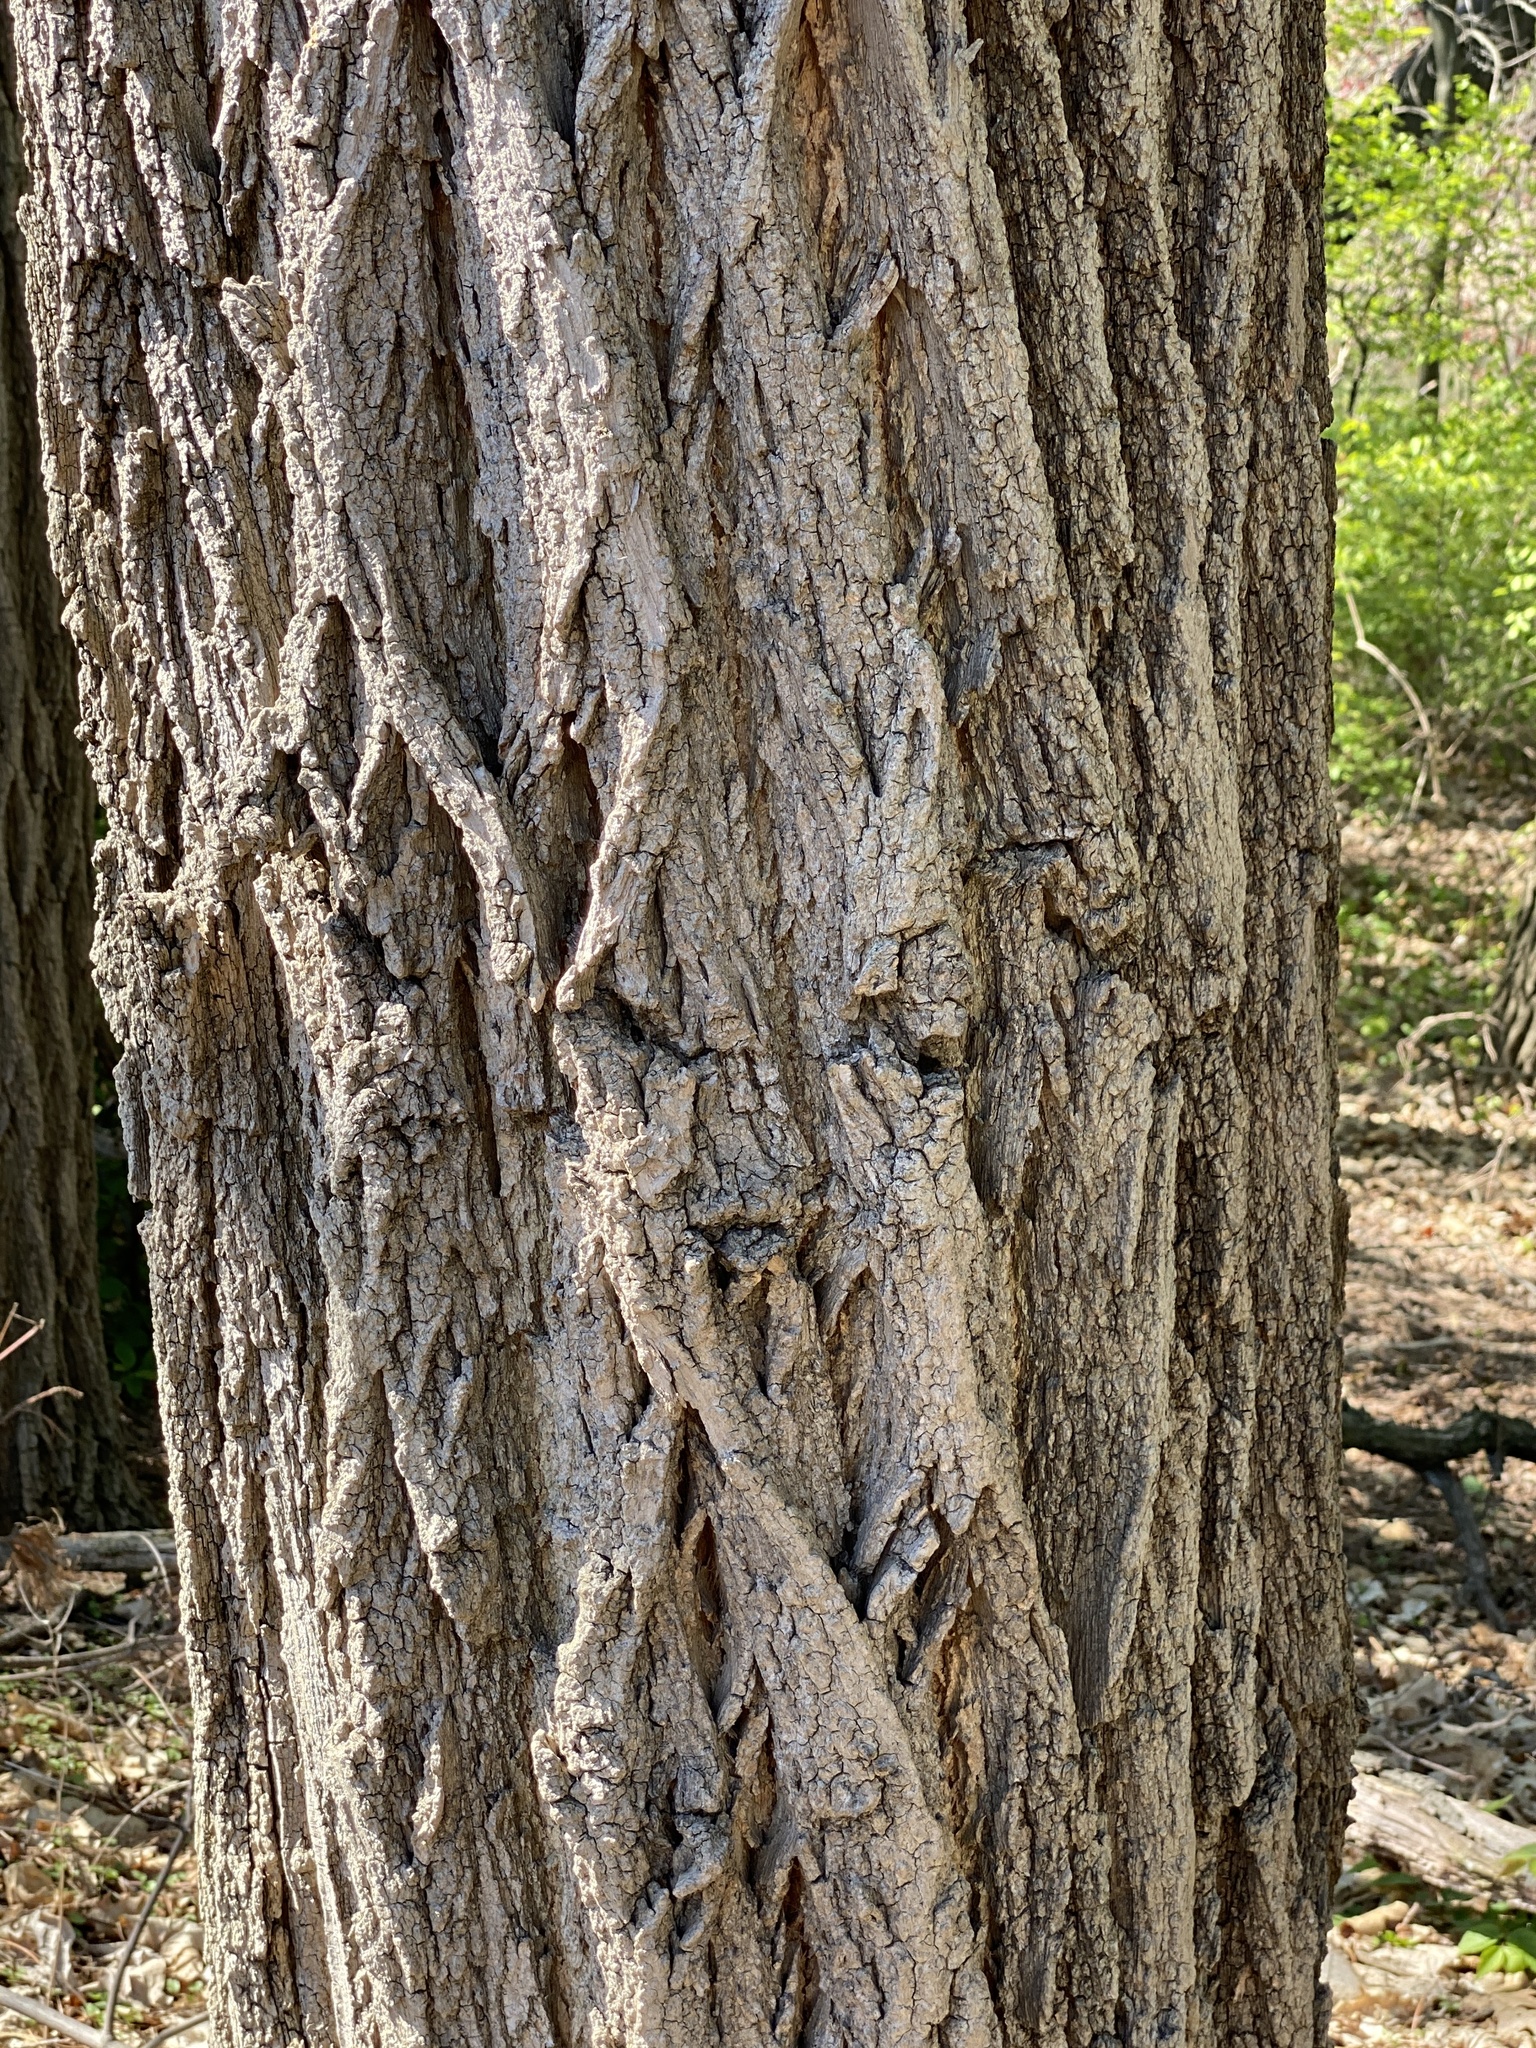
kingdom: Plantae
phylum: Tracheophyta
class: Magnoliopsida
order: Fabales
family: Fabaceae
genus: Robinia
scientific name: Robinia pseudoacacia
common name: Black locust
